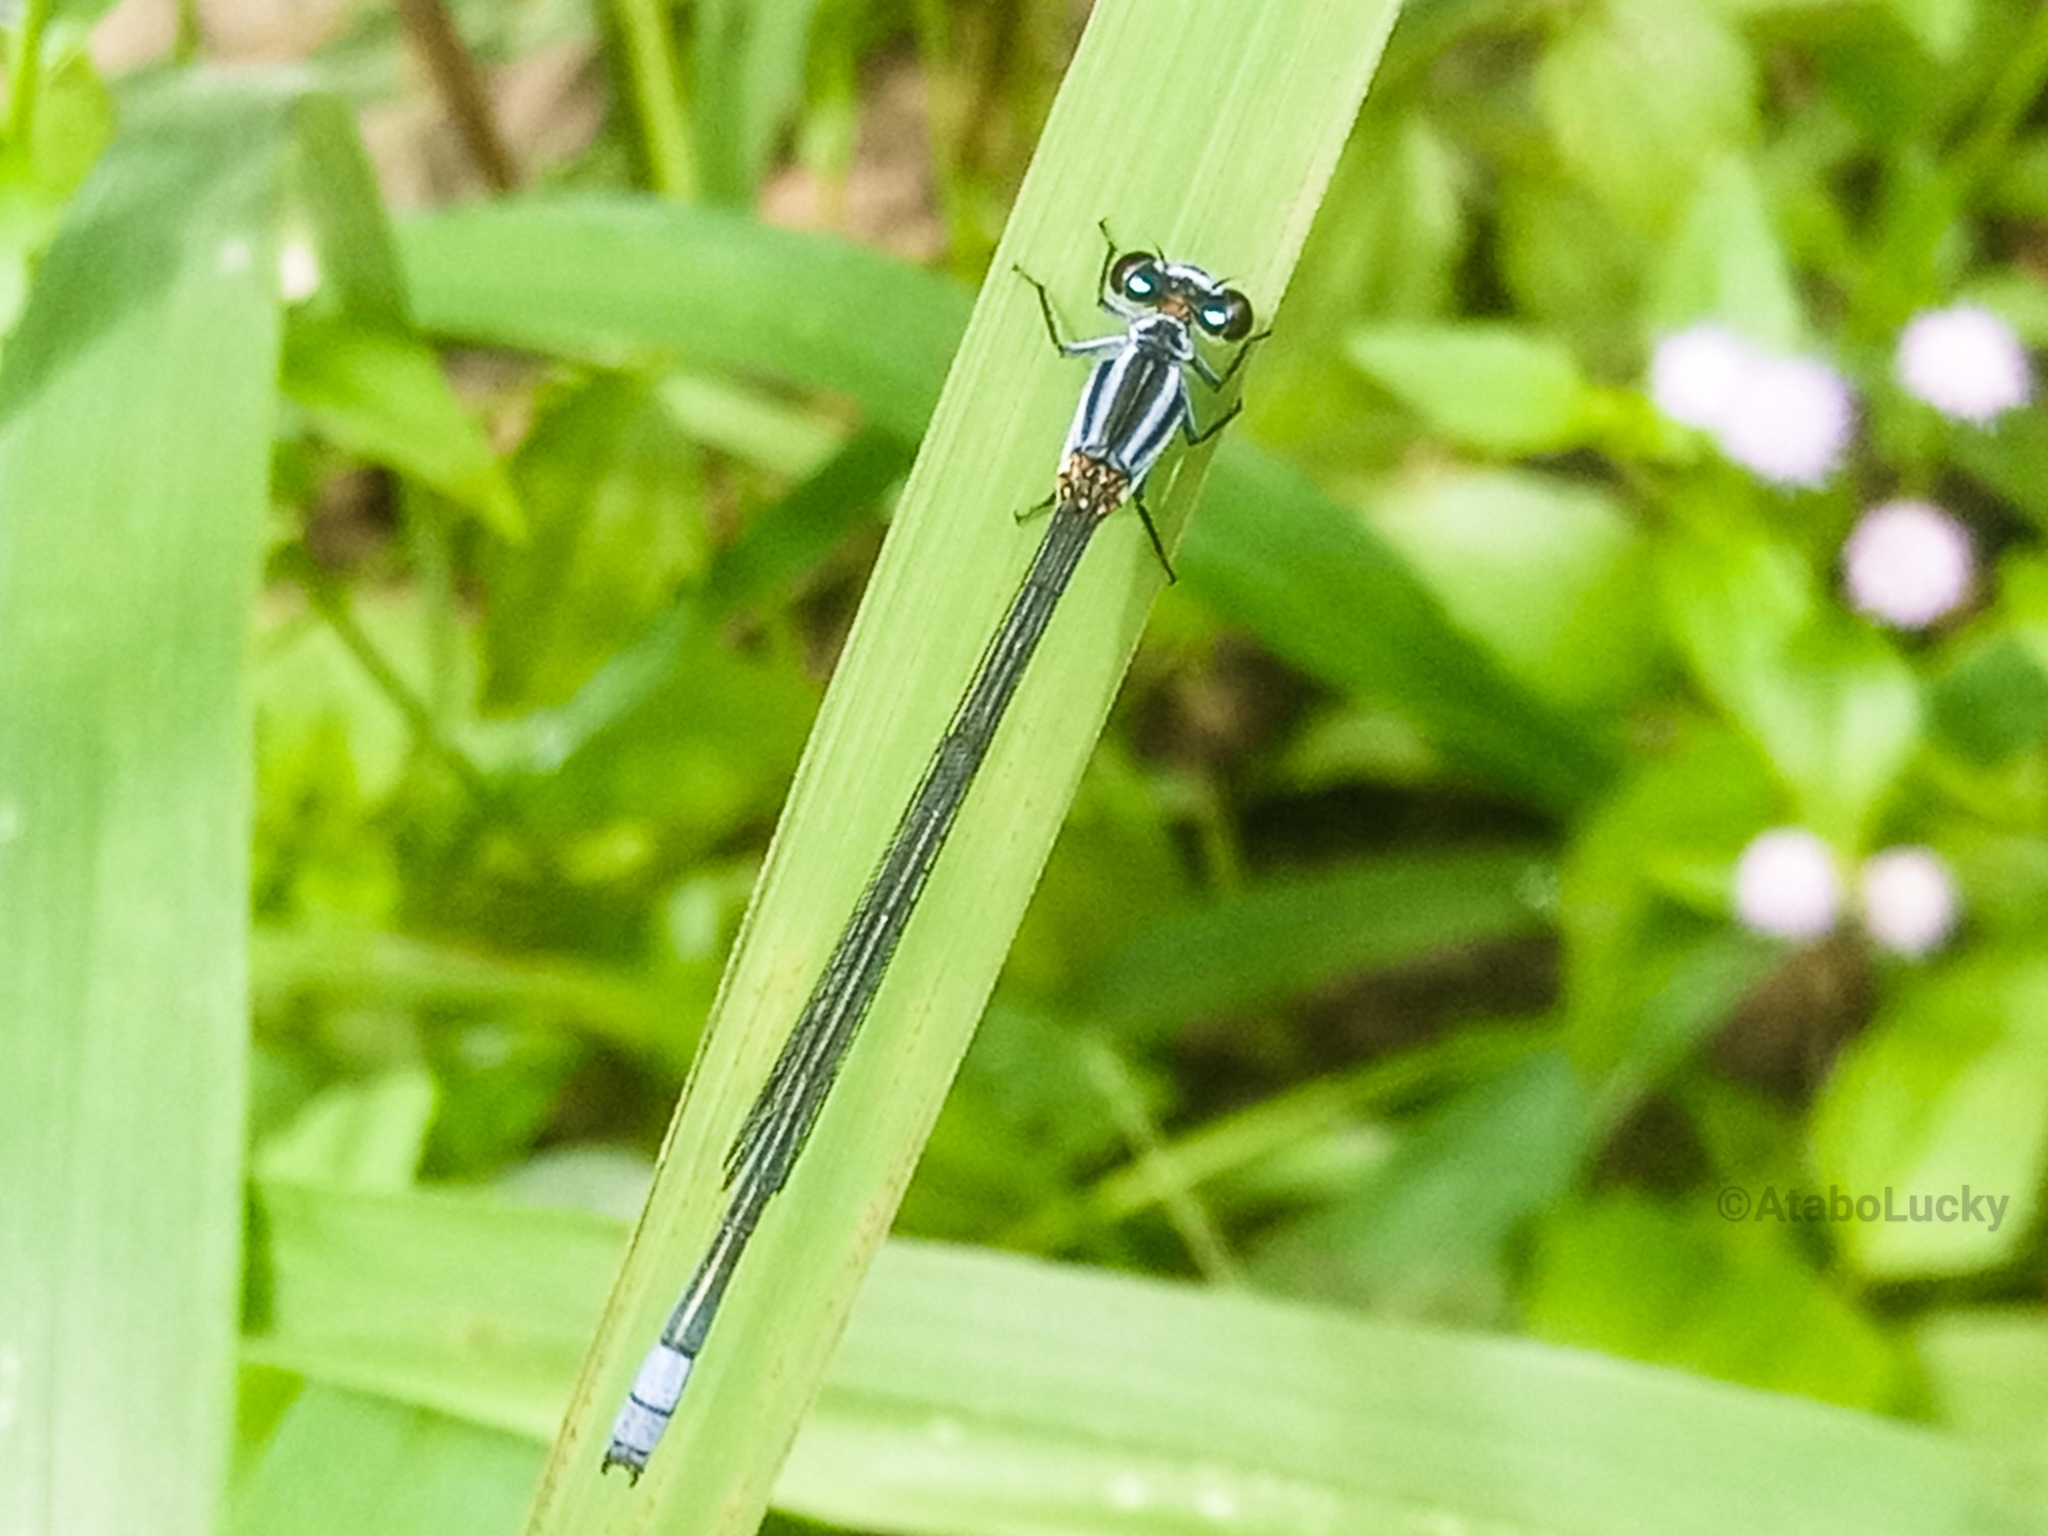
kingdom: Animalia
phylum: Arthropoda
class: Insecta
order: Odonata
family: Coenagrionidae
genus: Pseudagrion
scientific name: Pseudagrion kersteni
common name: Powder-faced sprite
